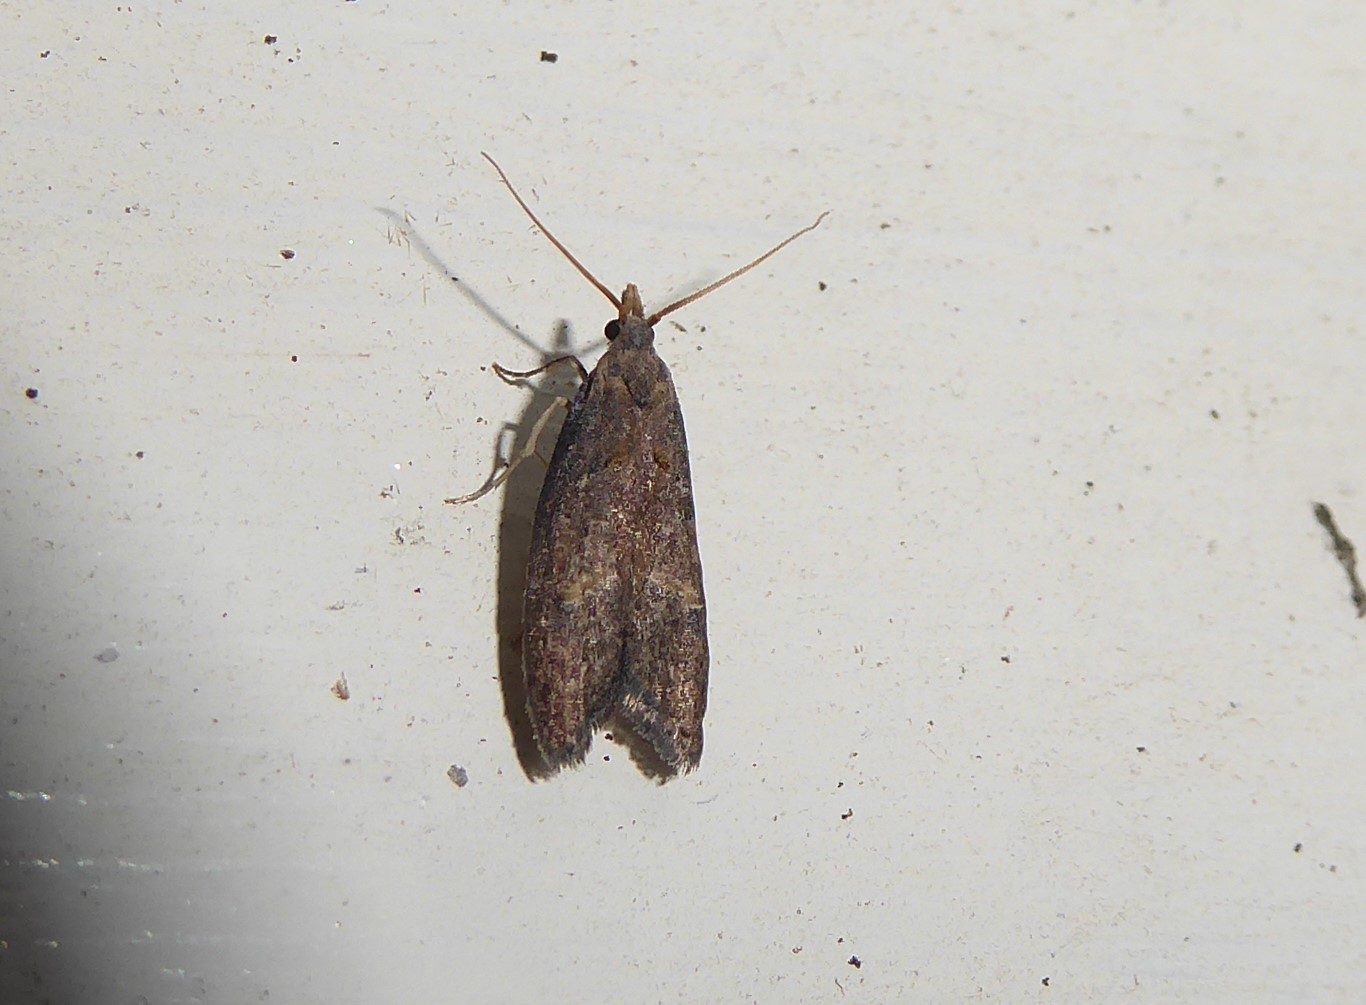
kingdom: Animalia
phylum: Arthropoda
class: Insecta
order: Lepidoptera
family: Carposinidae
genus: Carposina
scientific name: Carposina rubophaga
